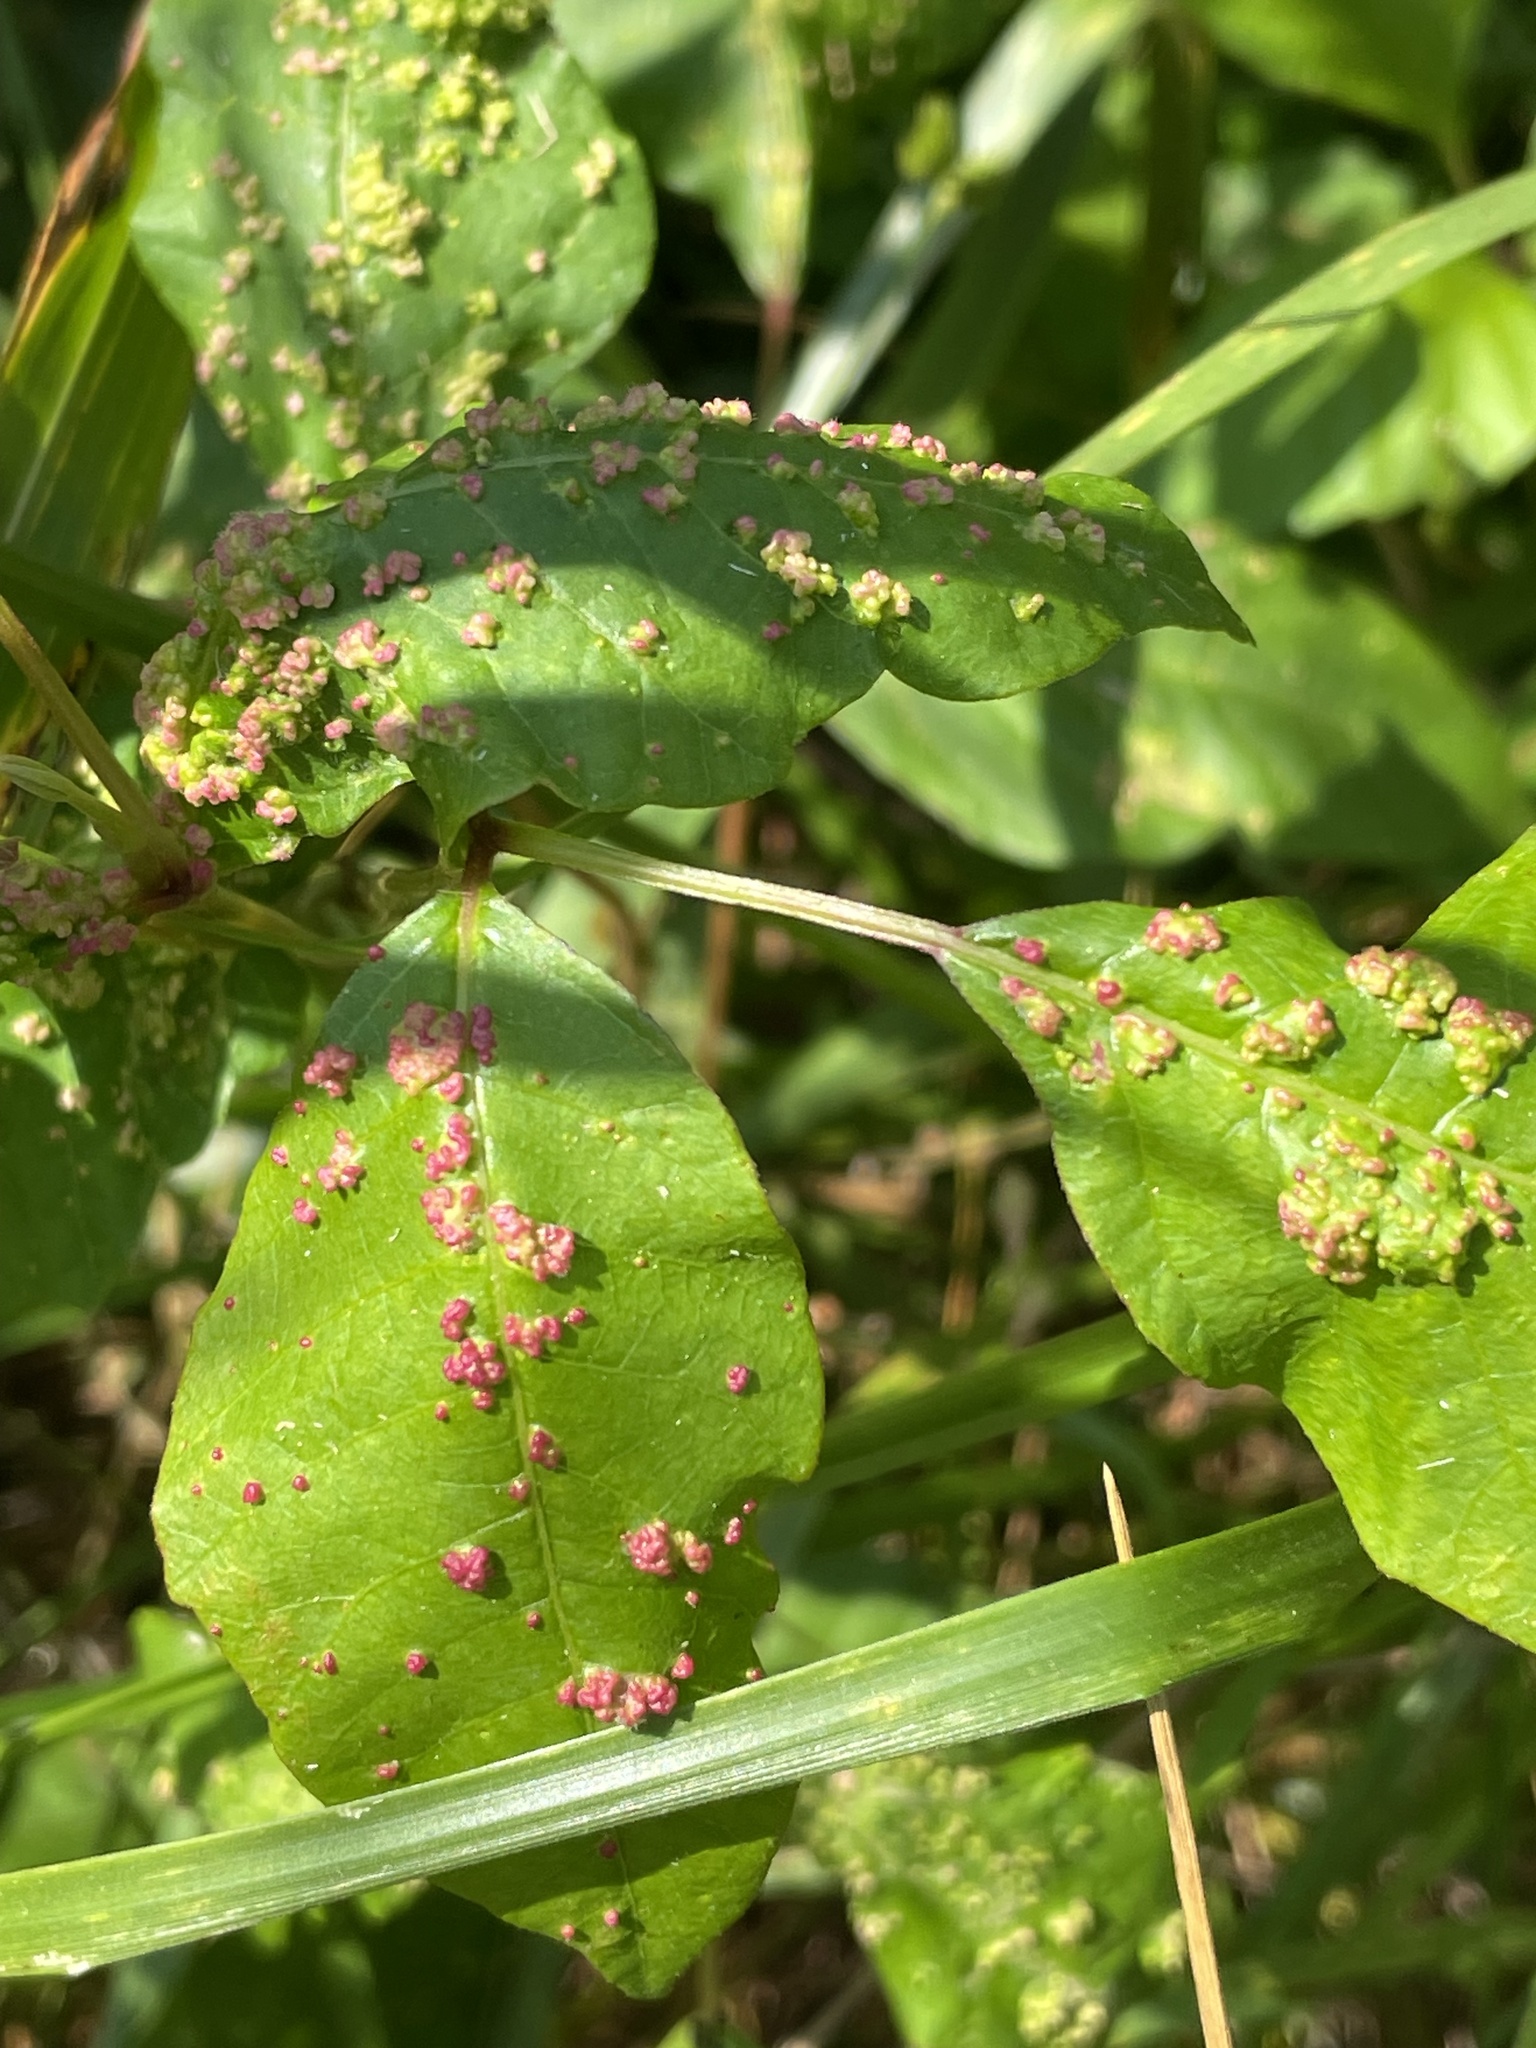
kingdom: Animalia
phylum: Arthropoda
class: Arachnida
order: Trombidiformes
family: Eriophyidae
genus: Aculops
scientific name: Aculops
